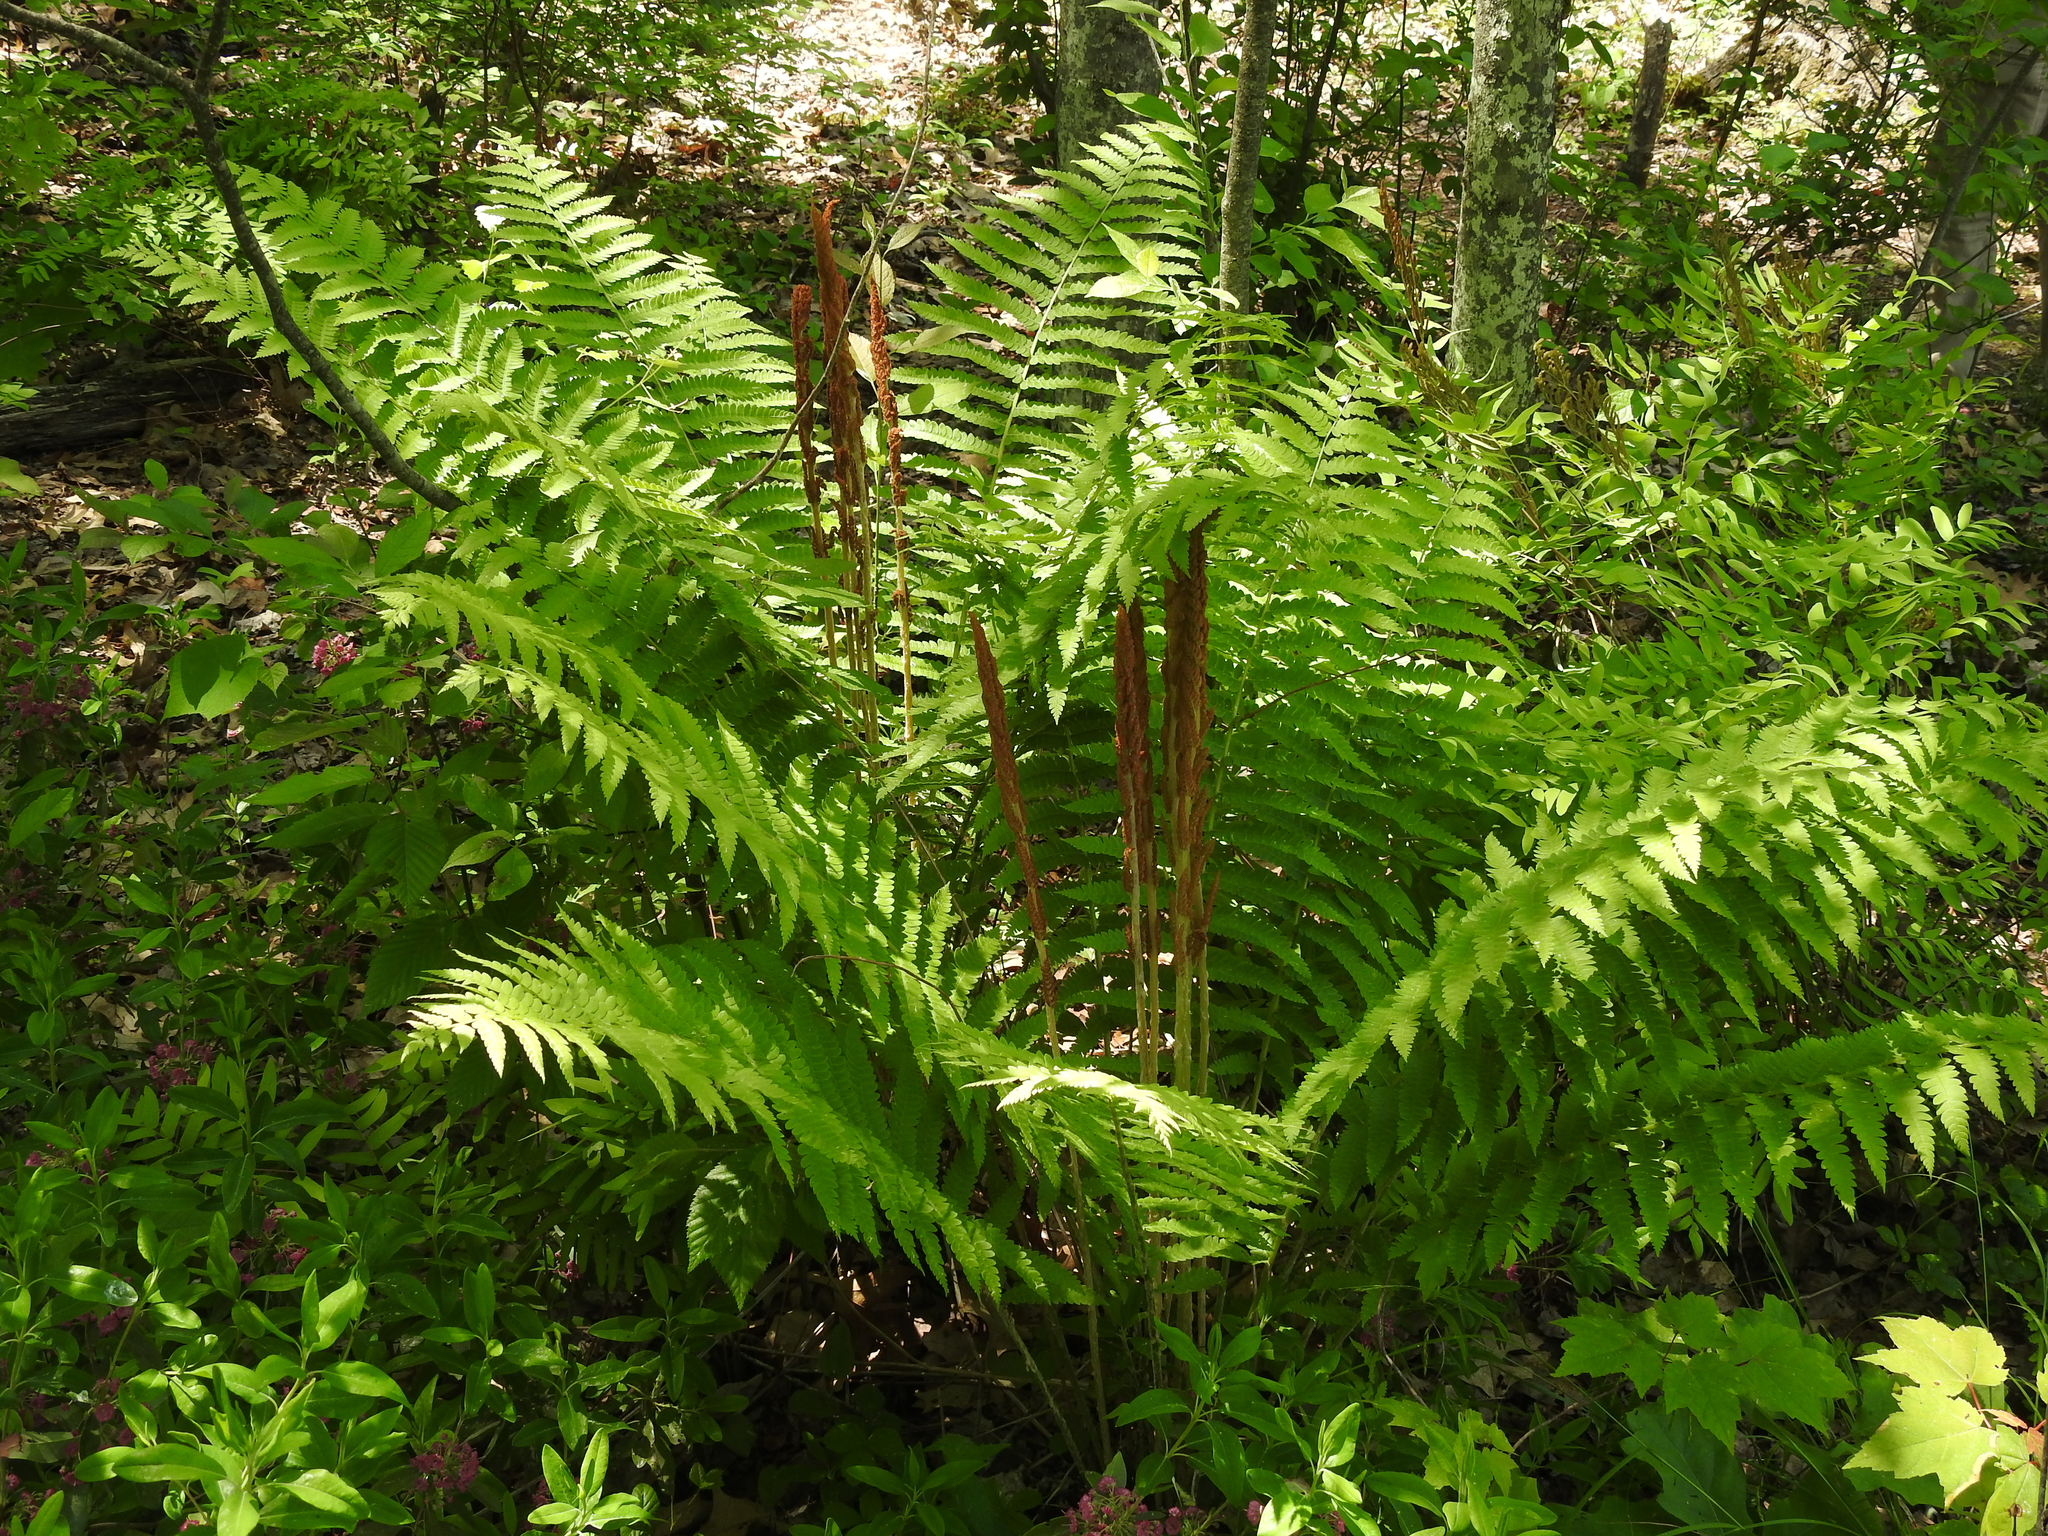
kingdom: Plantae
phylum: Tracheophyta
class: Polypodiopsida
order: Osmundales
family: Osmundaceae
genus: Osmundastrum
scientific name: Osmundastrum cinnamomeum
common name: Cinnamon fern
